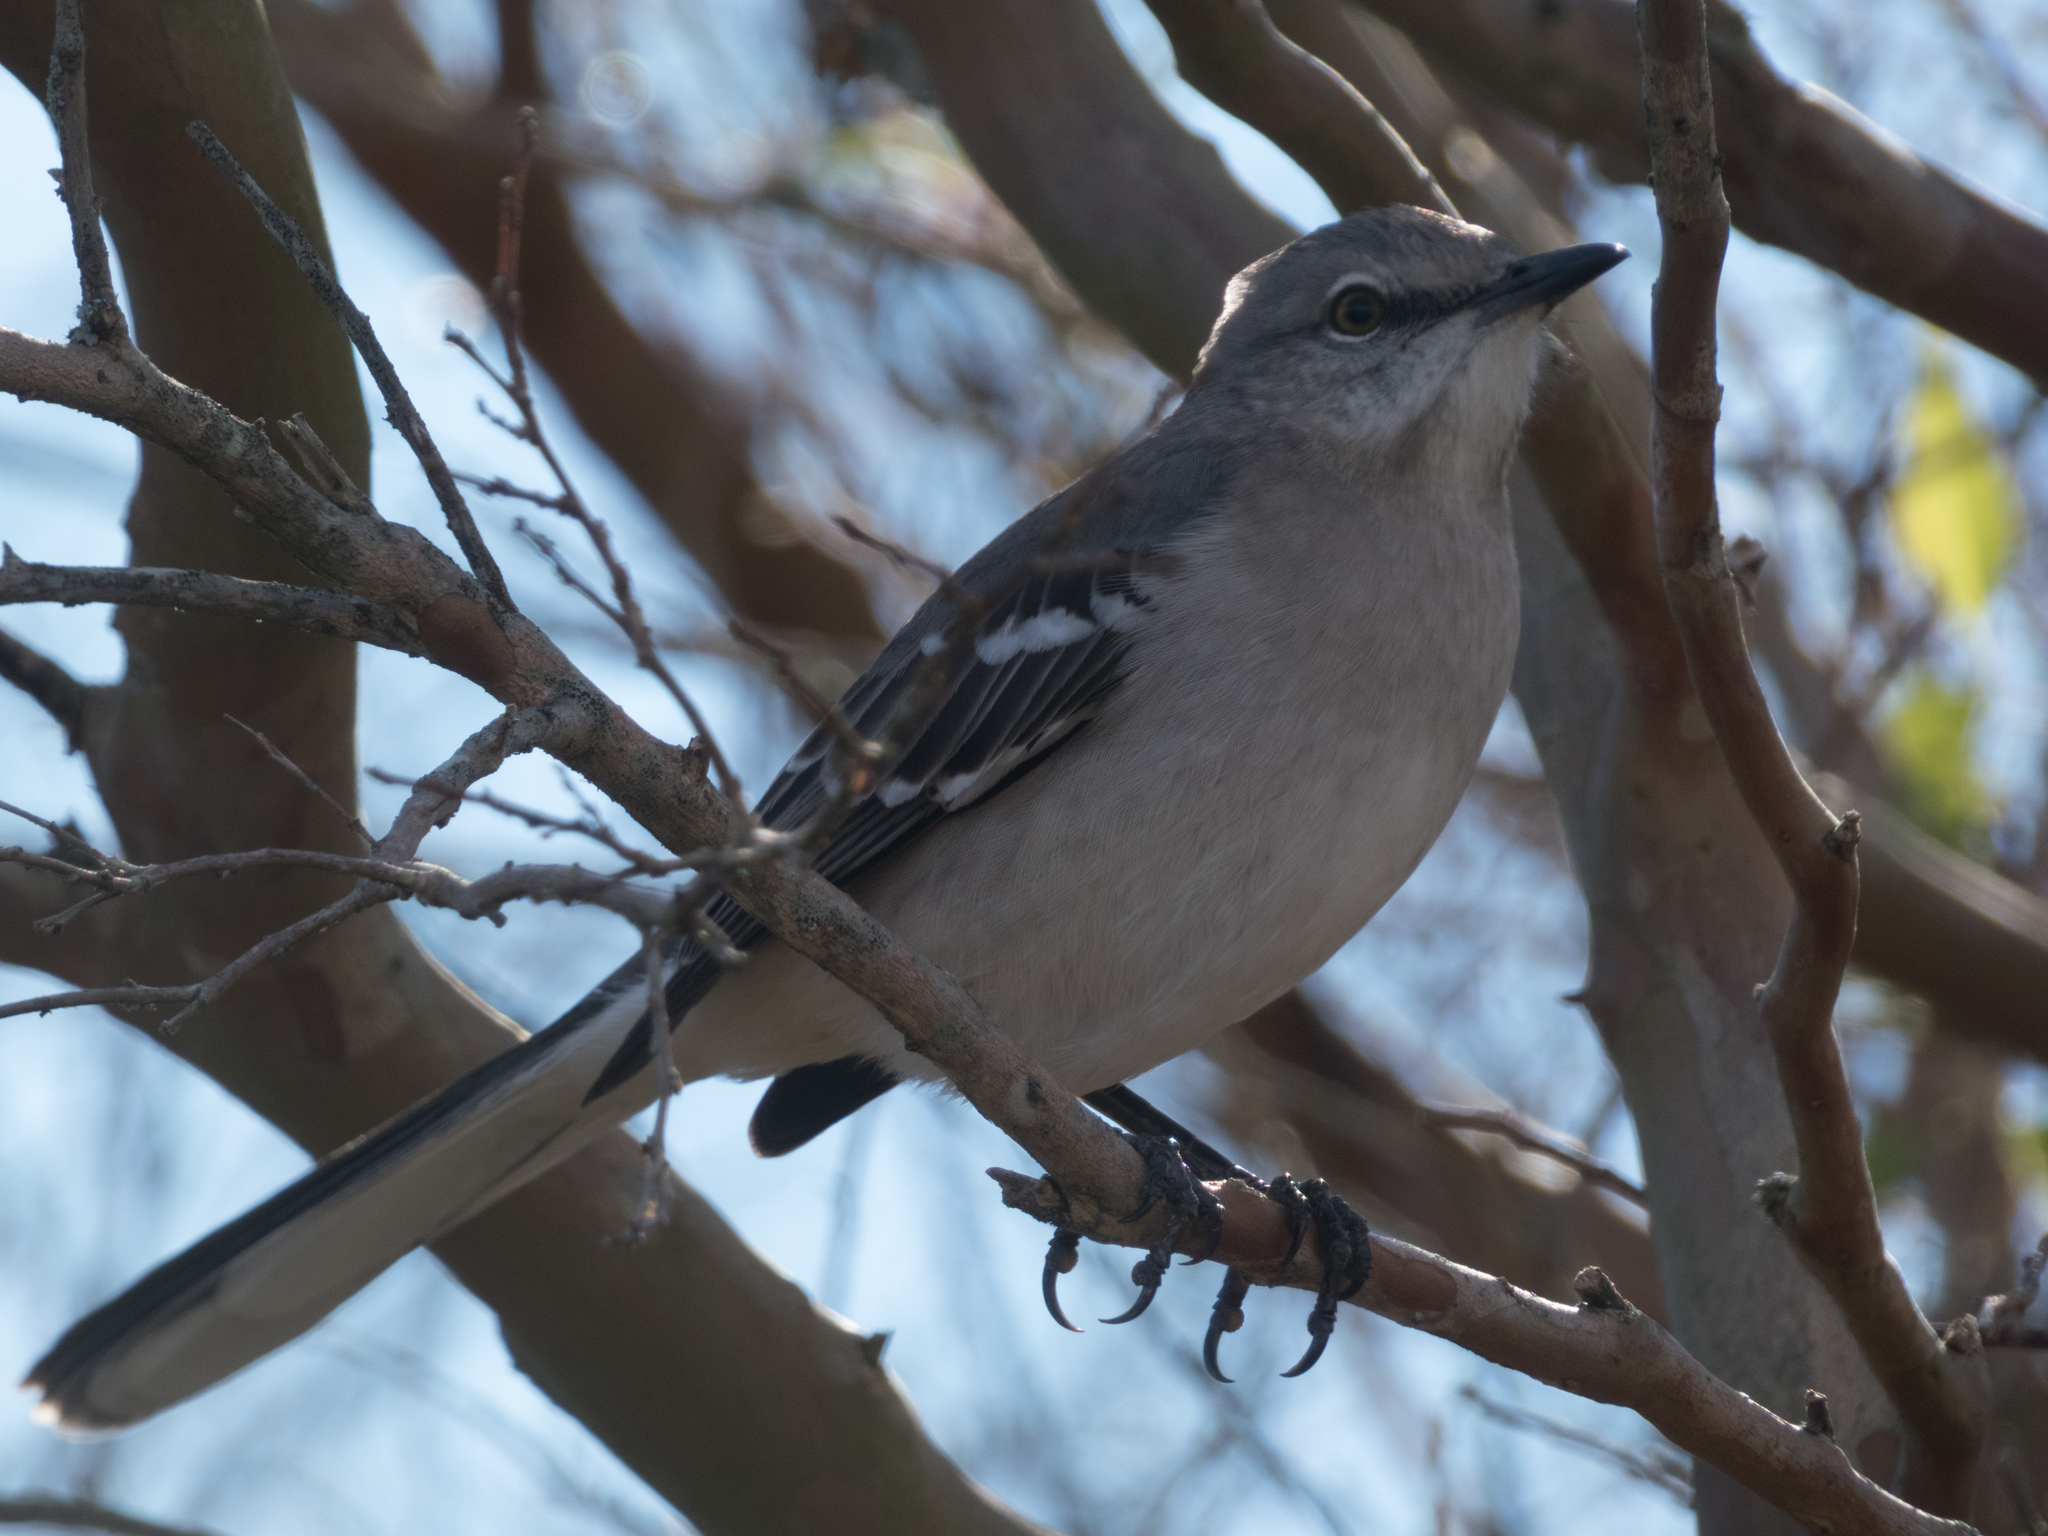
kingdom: Animalia
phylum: Chordata
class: Aves
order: Passeriformes
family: Mimidae
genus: Mimus
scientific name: Mimus polyglottos
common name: Northern mockingbird
